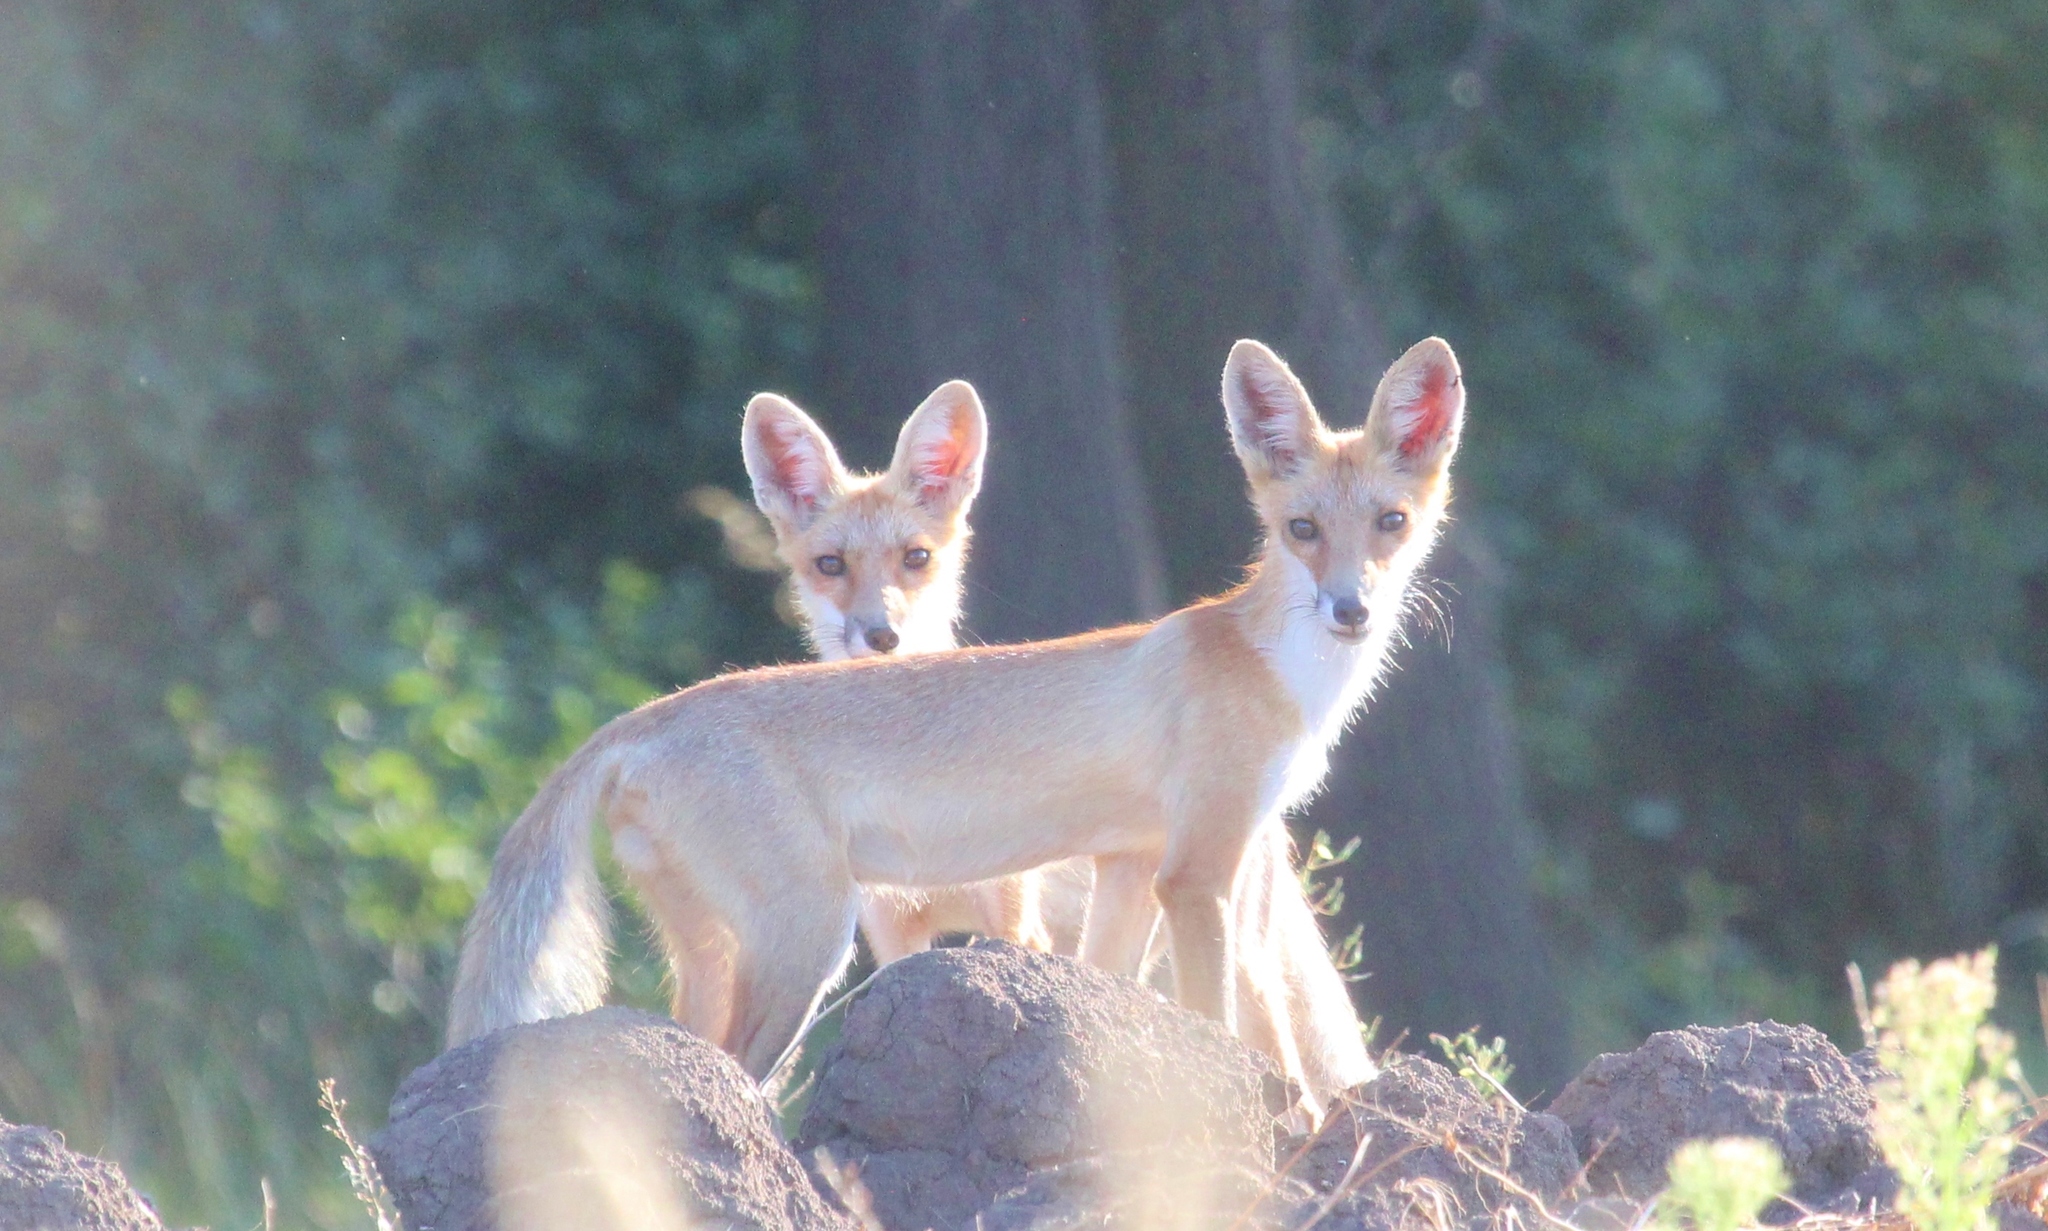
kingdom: Animalia
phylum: Chordata
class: Mammalia
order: Carnivora
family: Canidae
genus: Vulpes
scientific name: Vulpes vulpes
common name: Red fox
